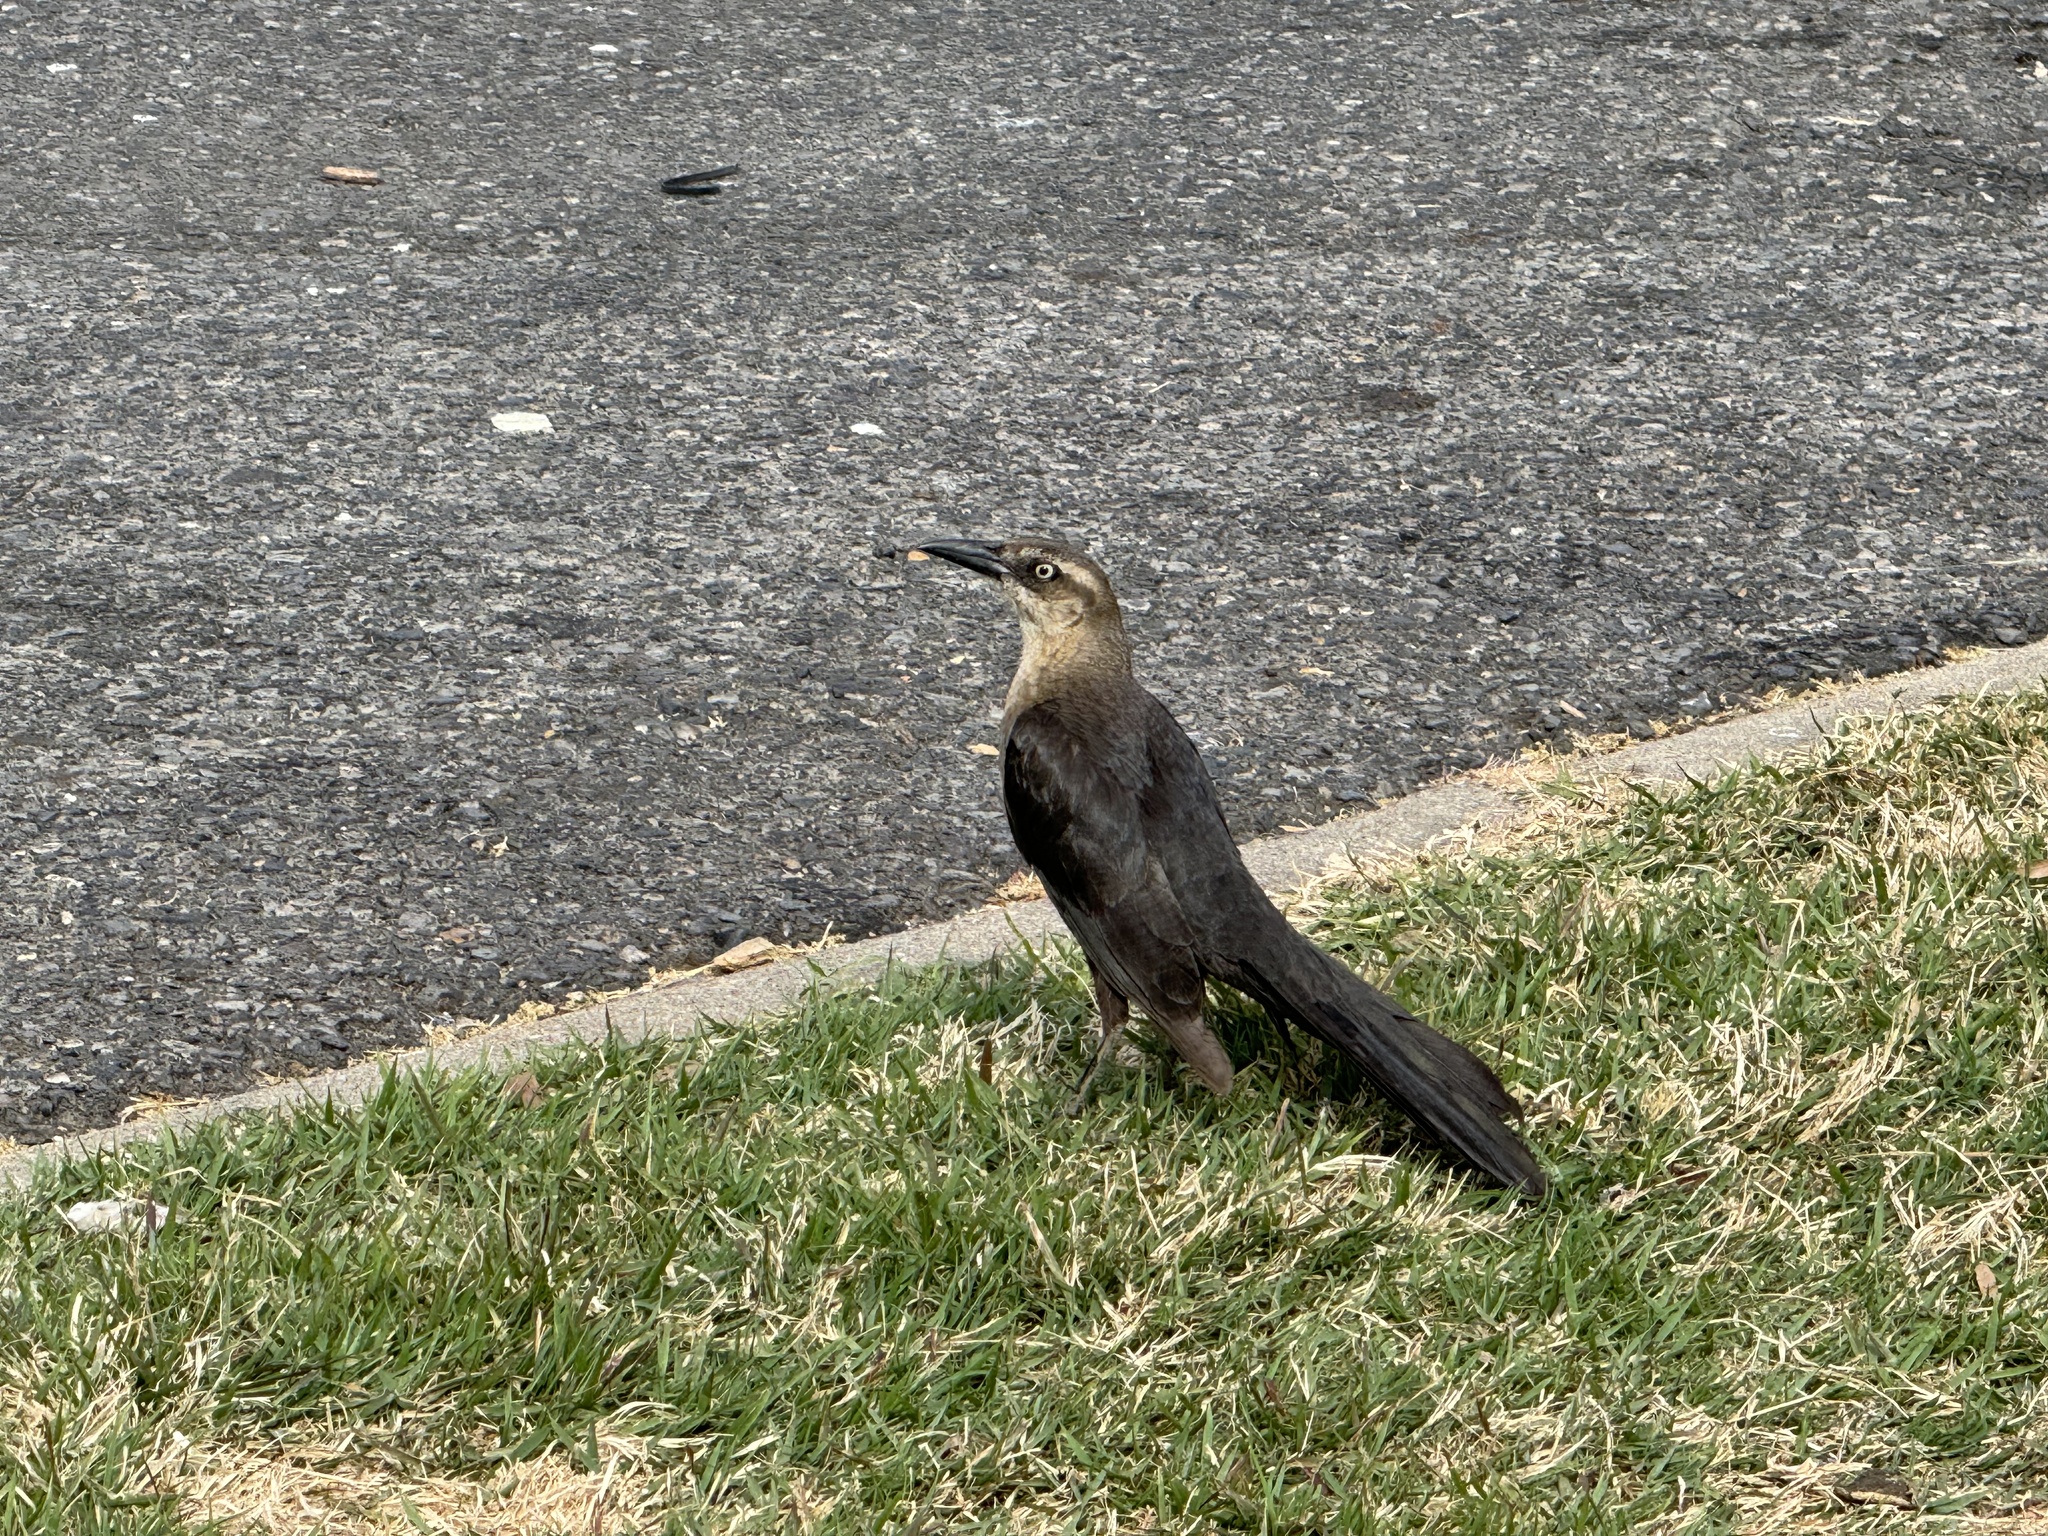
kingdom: Animalia
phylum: Chordata
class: Aves
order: Passeriformes
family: Icteridae
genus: Quiscalus
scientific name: Quiscalus mexicanus
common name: Great-tailed grackle
